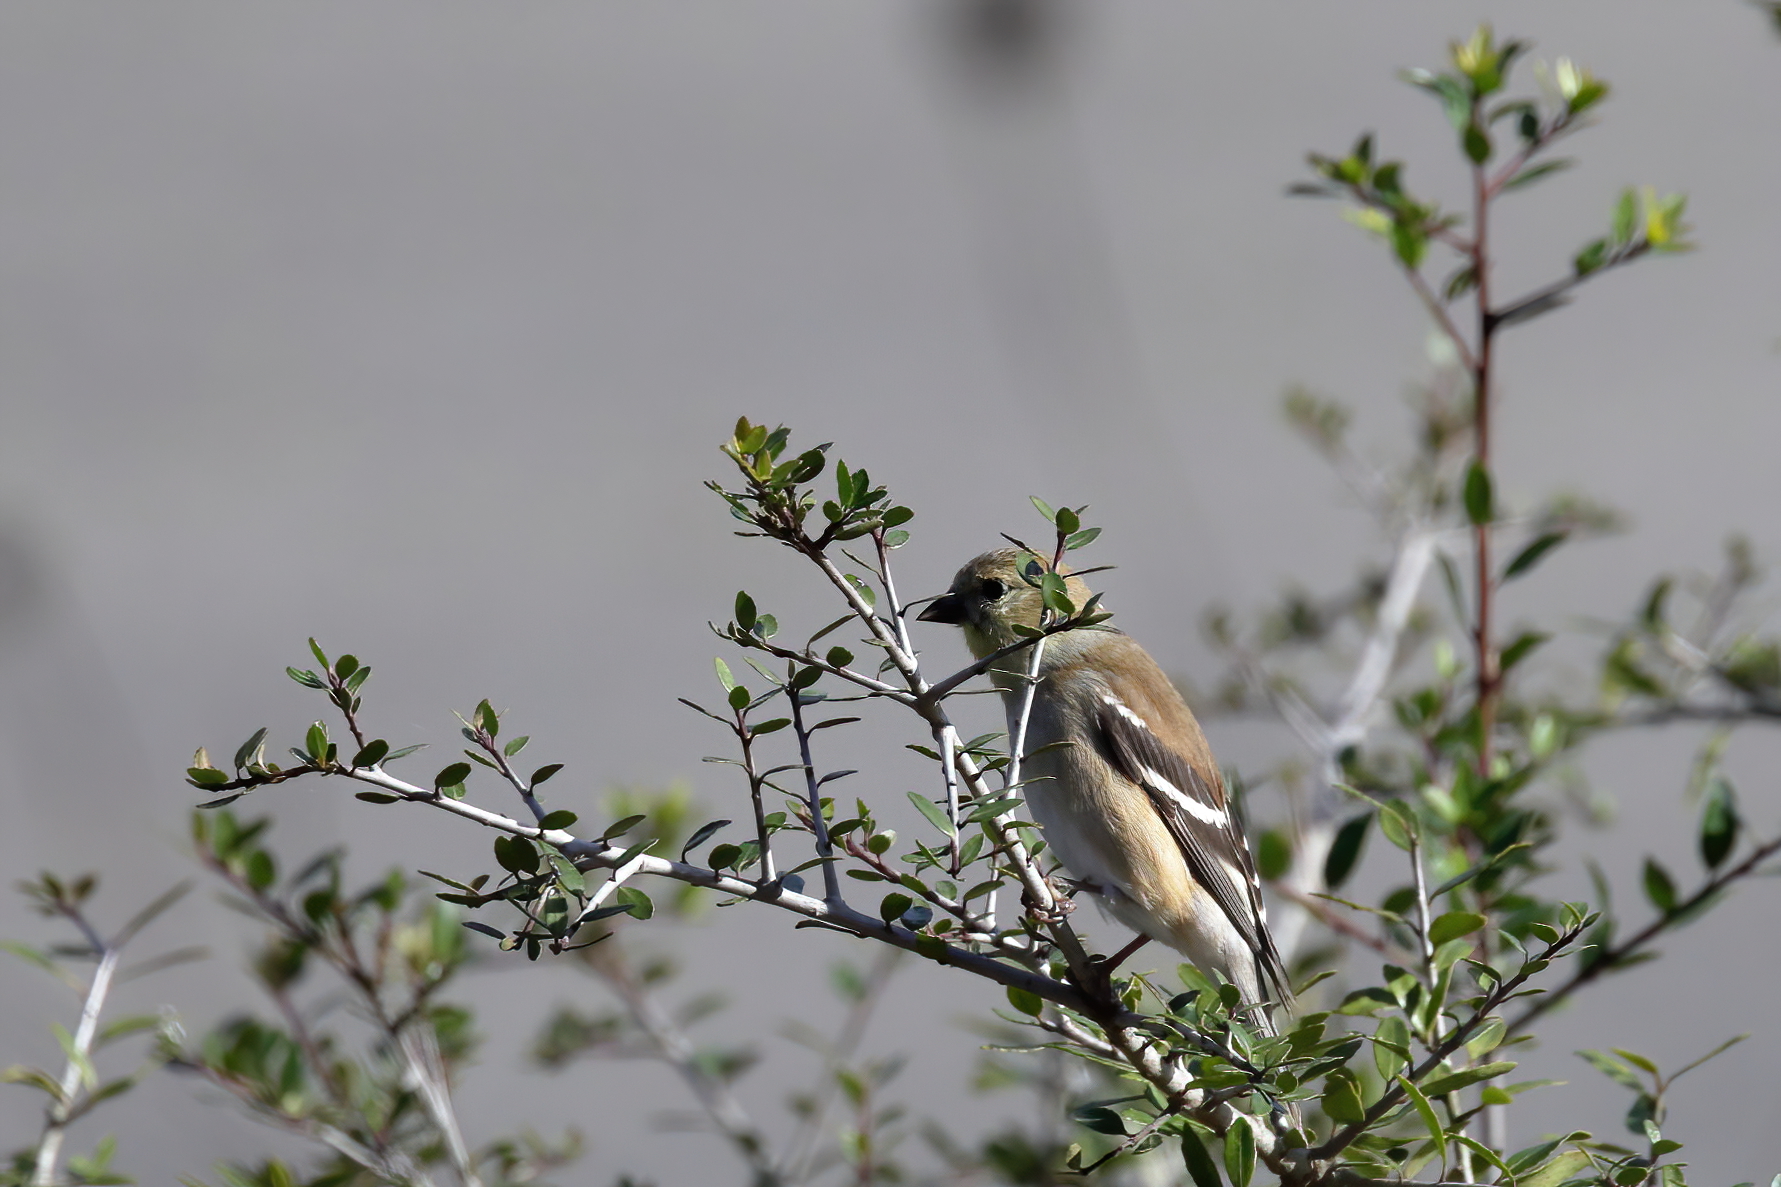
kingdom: Animalia
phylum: Chordata
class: Aves
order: Passeriformes
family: Fringillidae
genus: Spinus
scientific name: Spinus tristis
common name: American goldfinch
